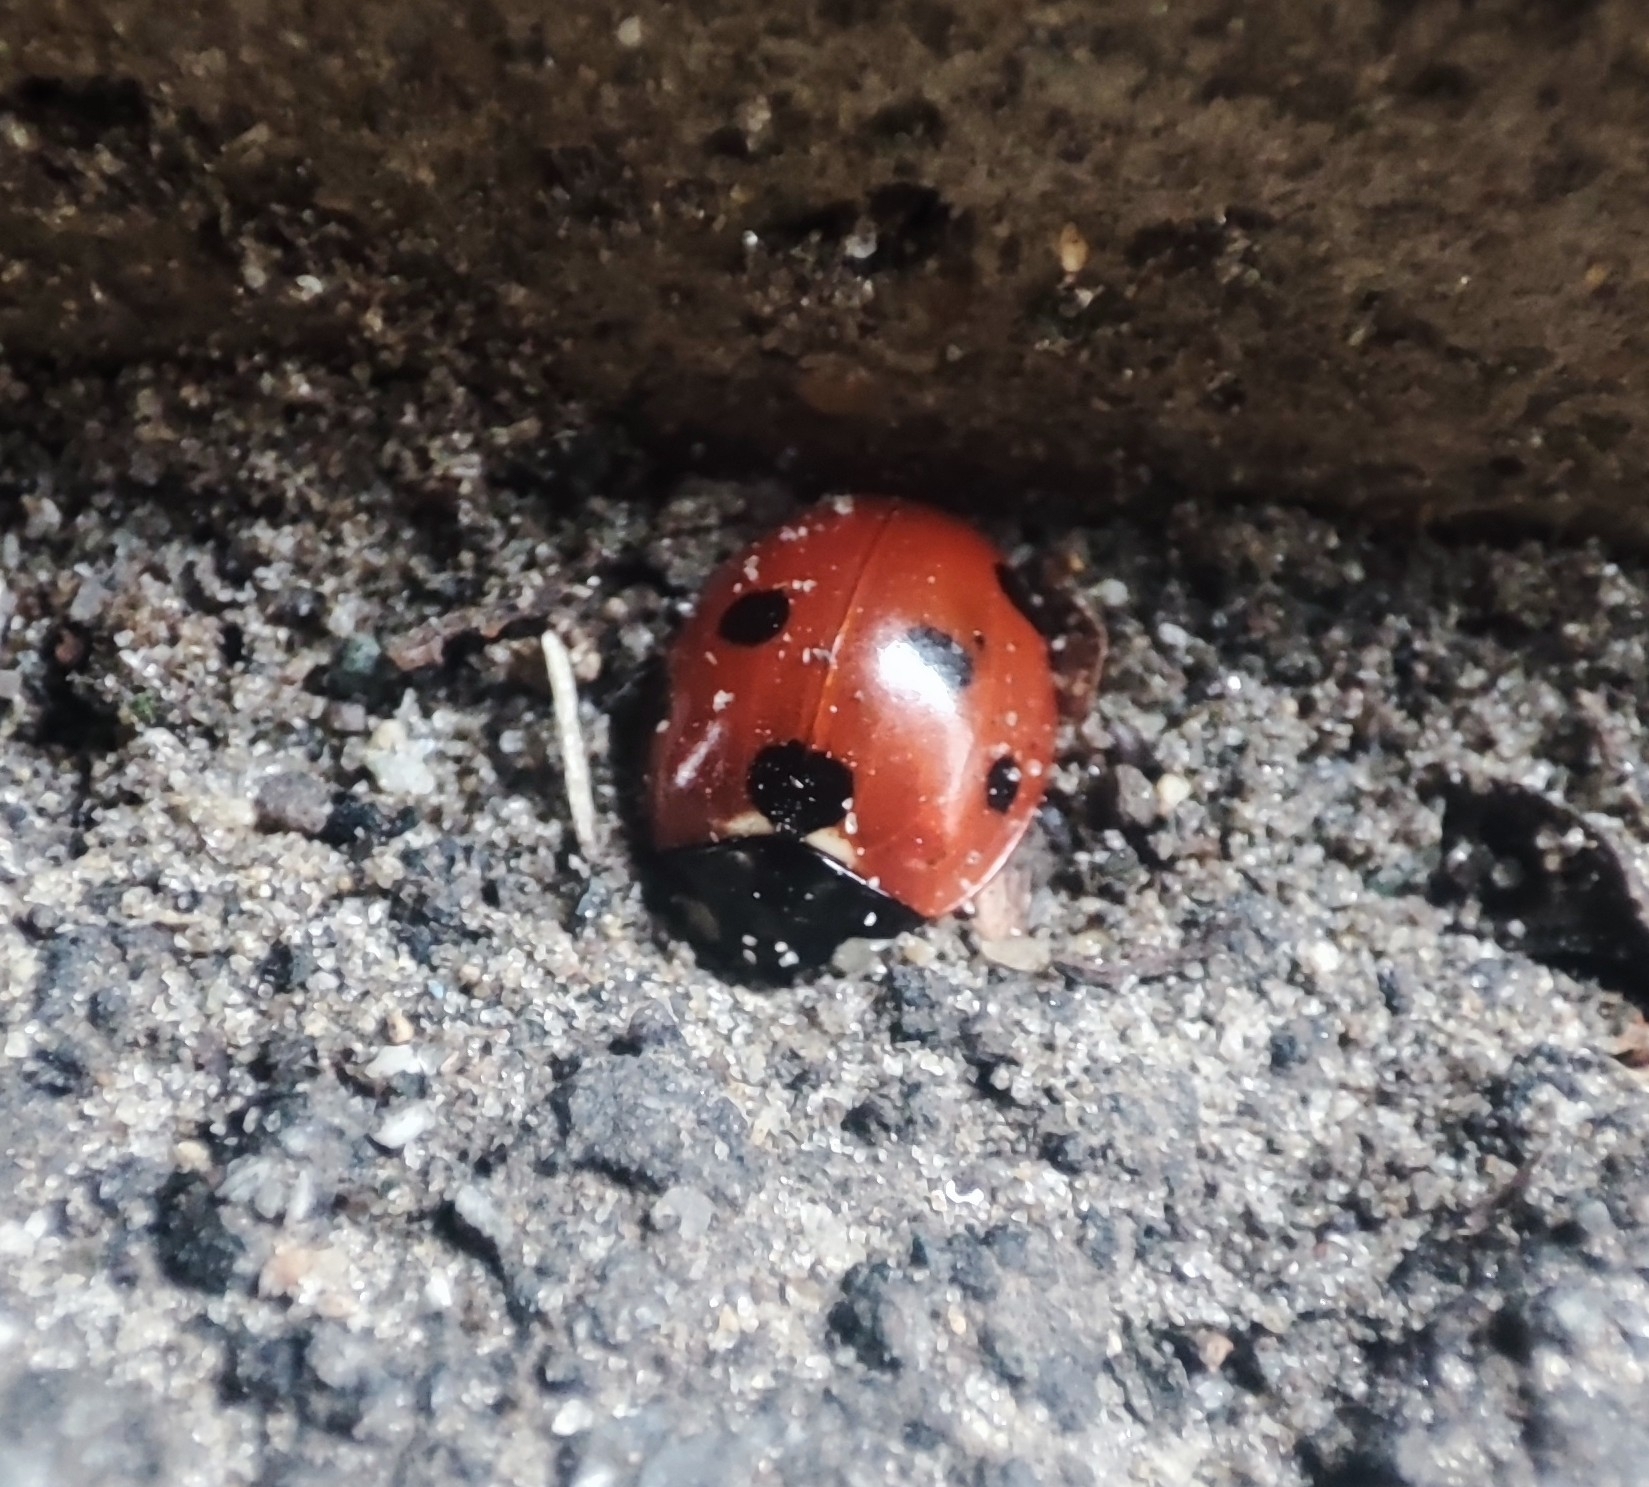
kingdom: Animalia
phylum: Arthropoda
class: Insecta
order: Coleoptera
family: Coccinellidae
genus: Coccinella
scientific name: Coccinella septempunctata
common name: Sevenspotted lady beetle
